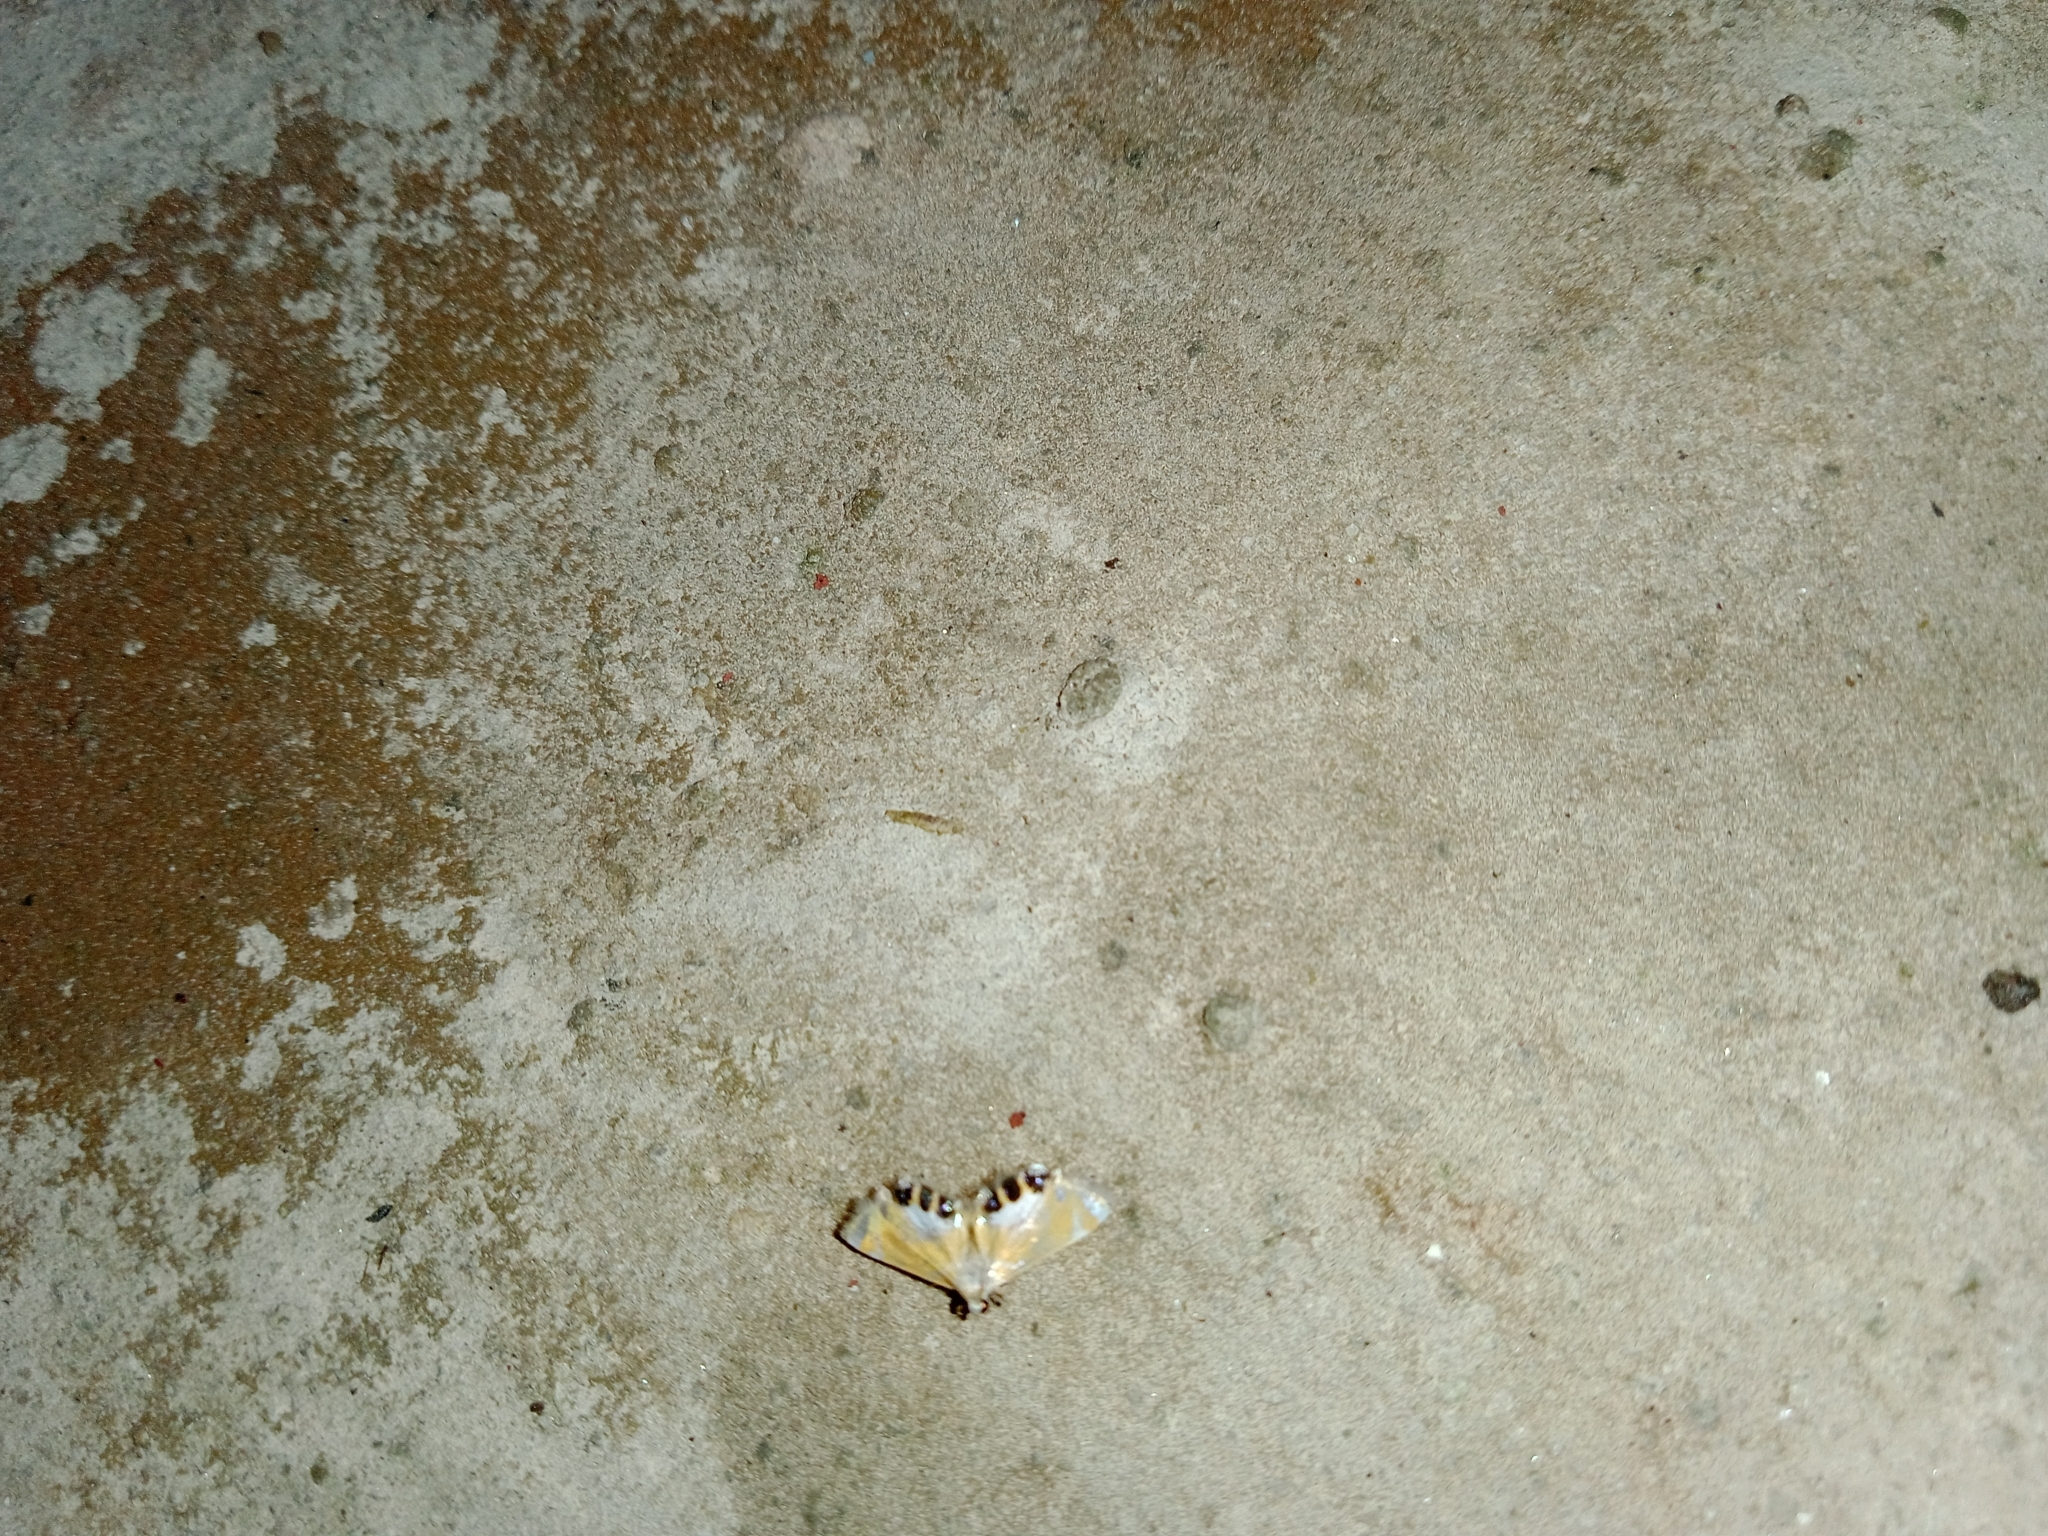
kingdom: Animalia
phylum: Arthropoda
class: Insecta
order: Lepidoptera
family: Crambidae
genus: Nymphicula
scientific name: Nymphicula
